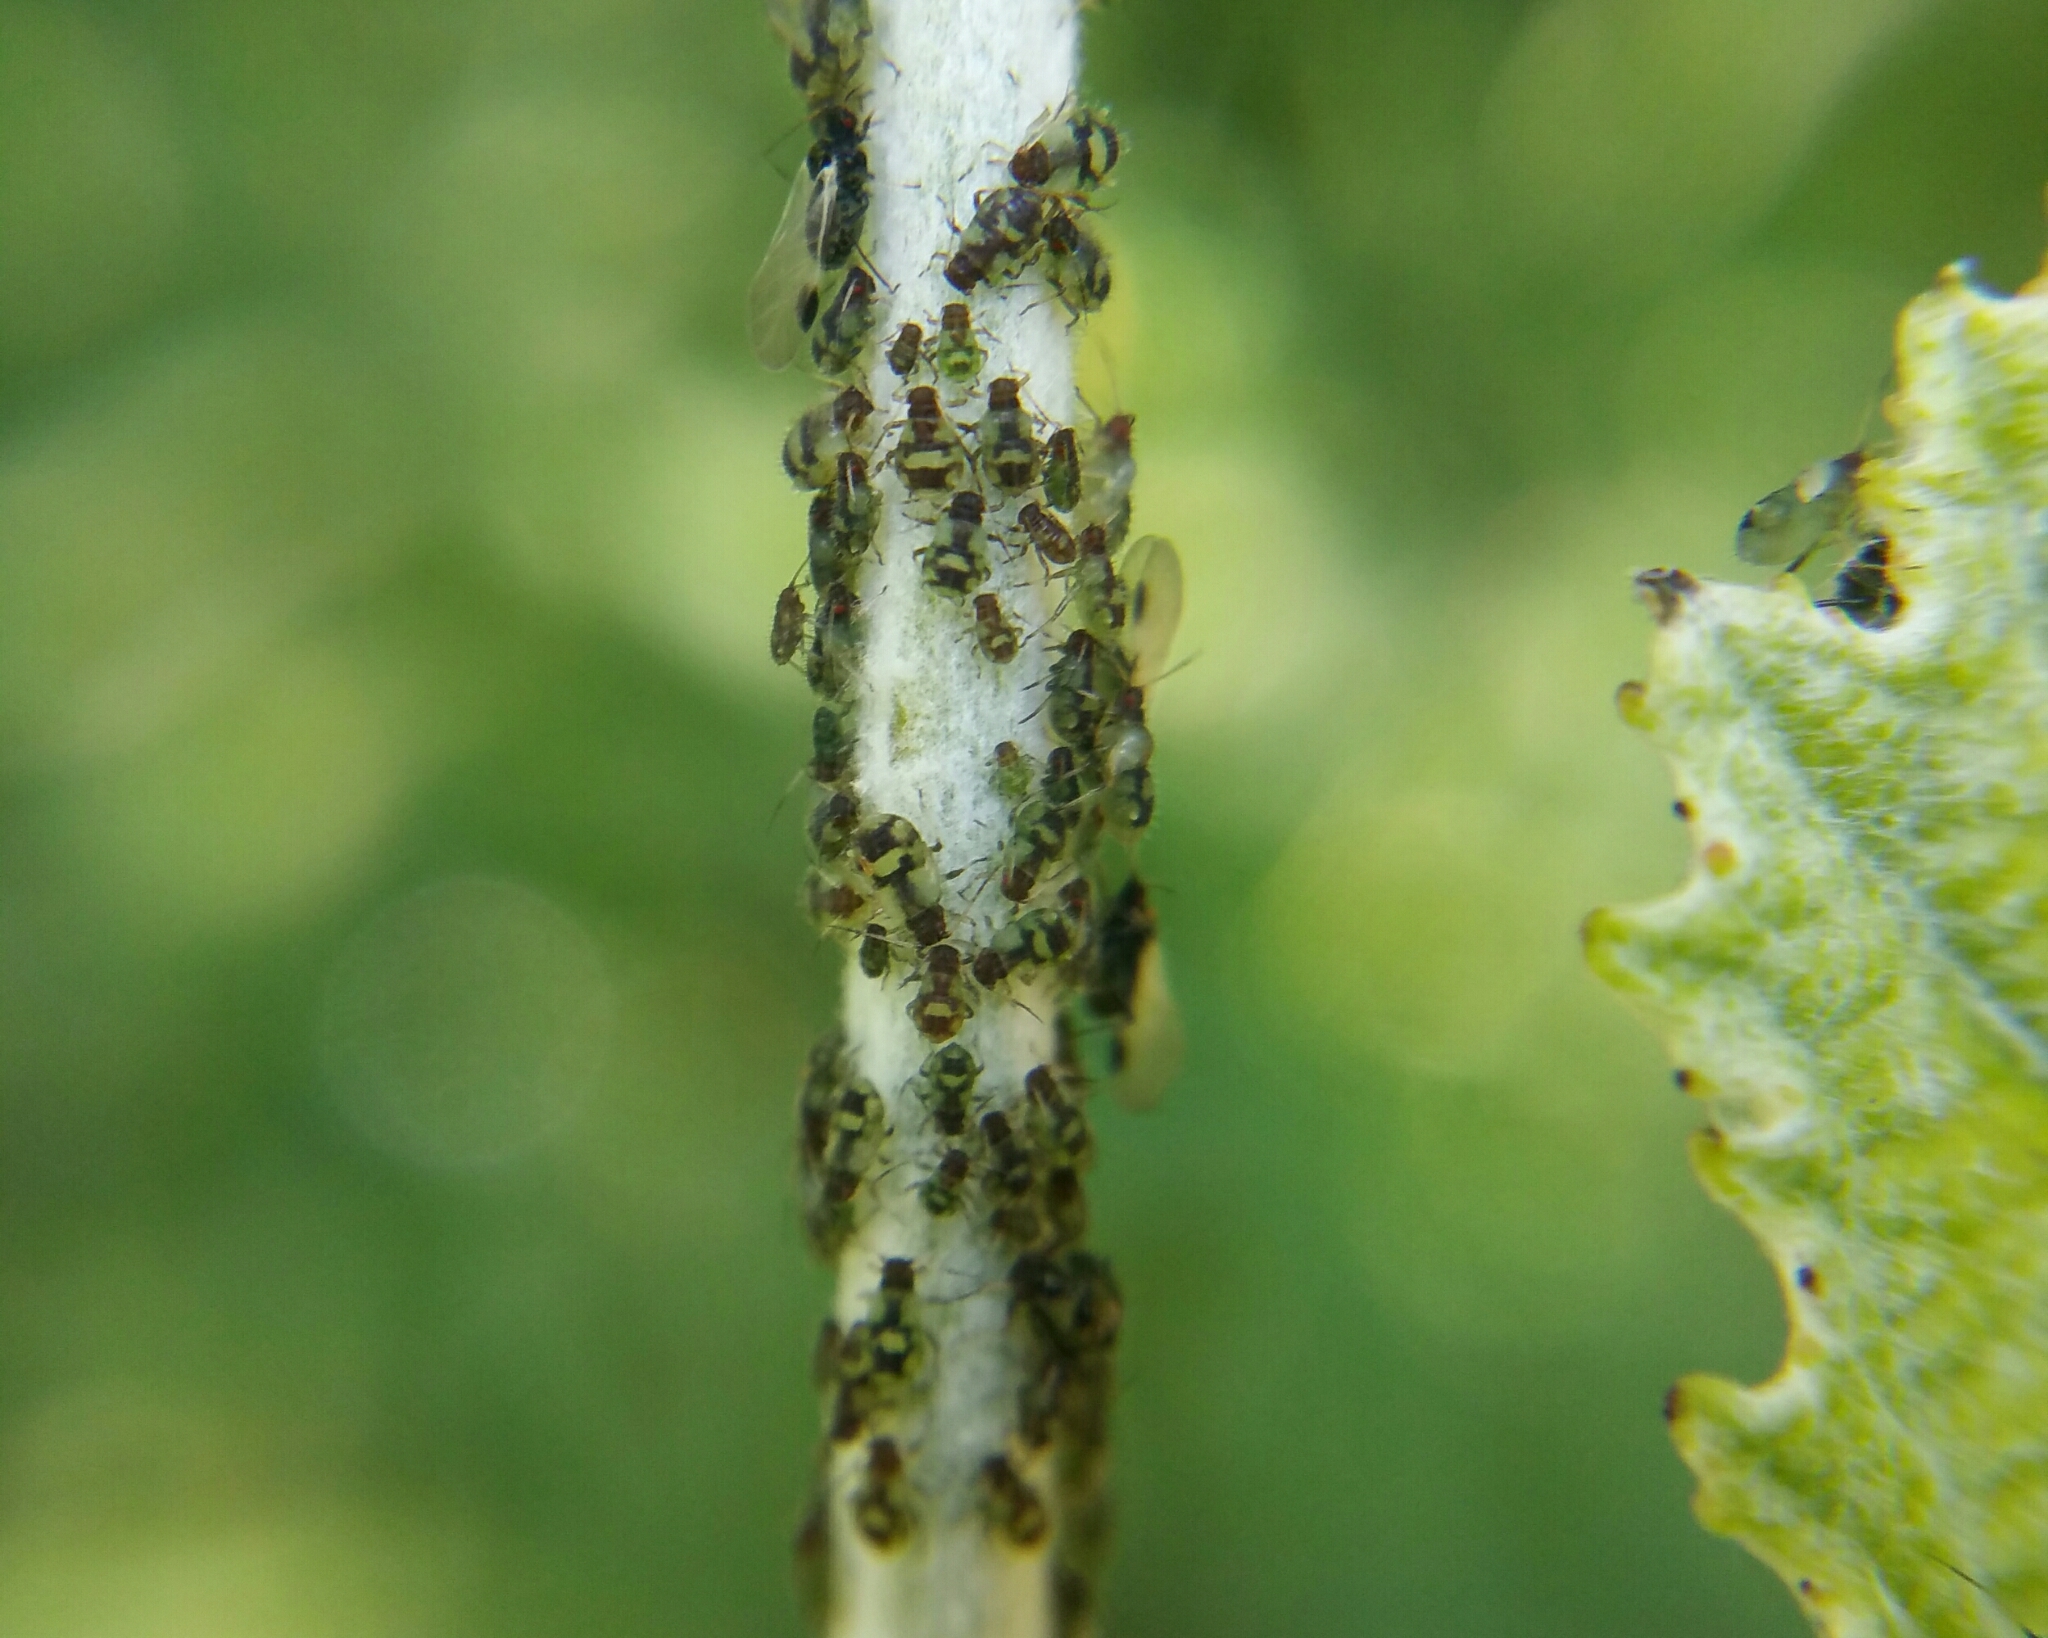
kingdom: Animalia
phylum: Arthropoda
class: Insecta
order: Hemiptera
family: Aphididae
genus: Chaitophorus
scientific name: Chaitophorus populeti
